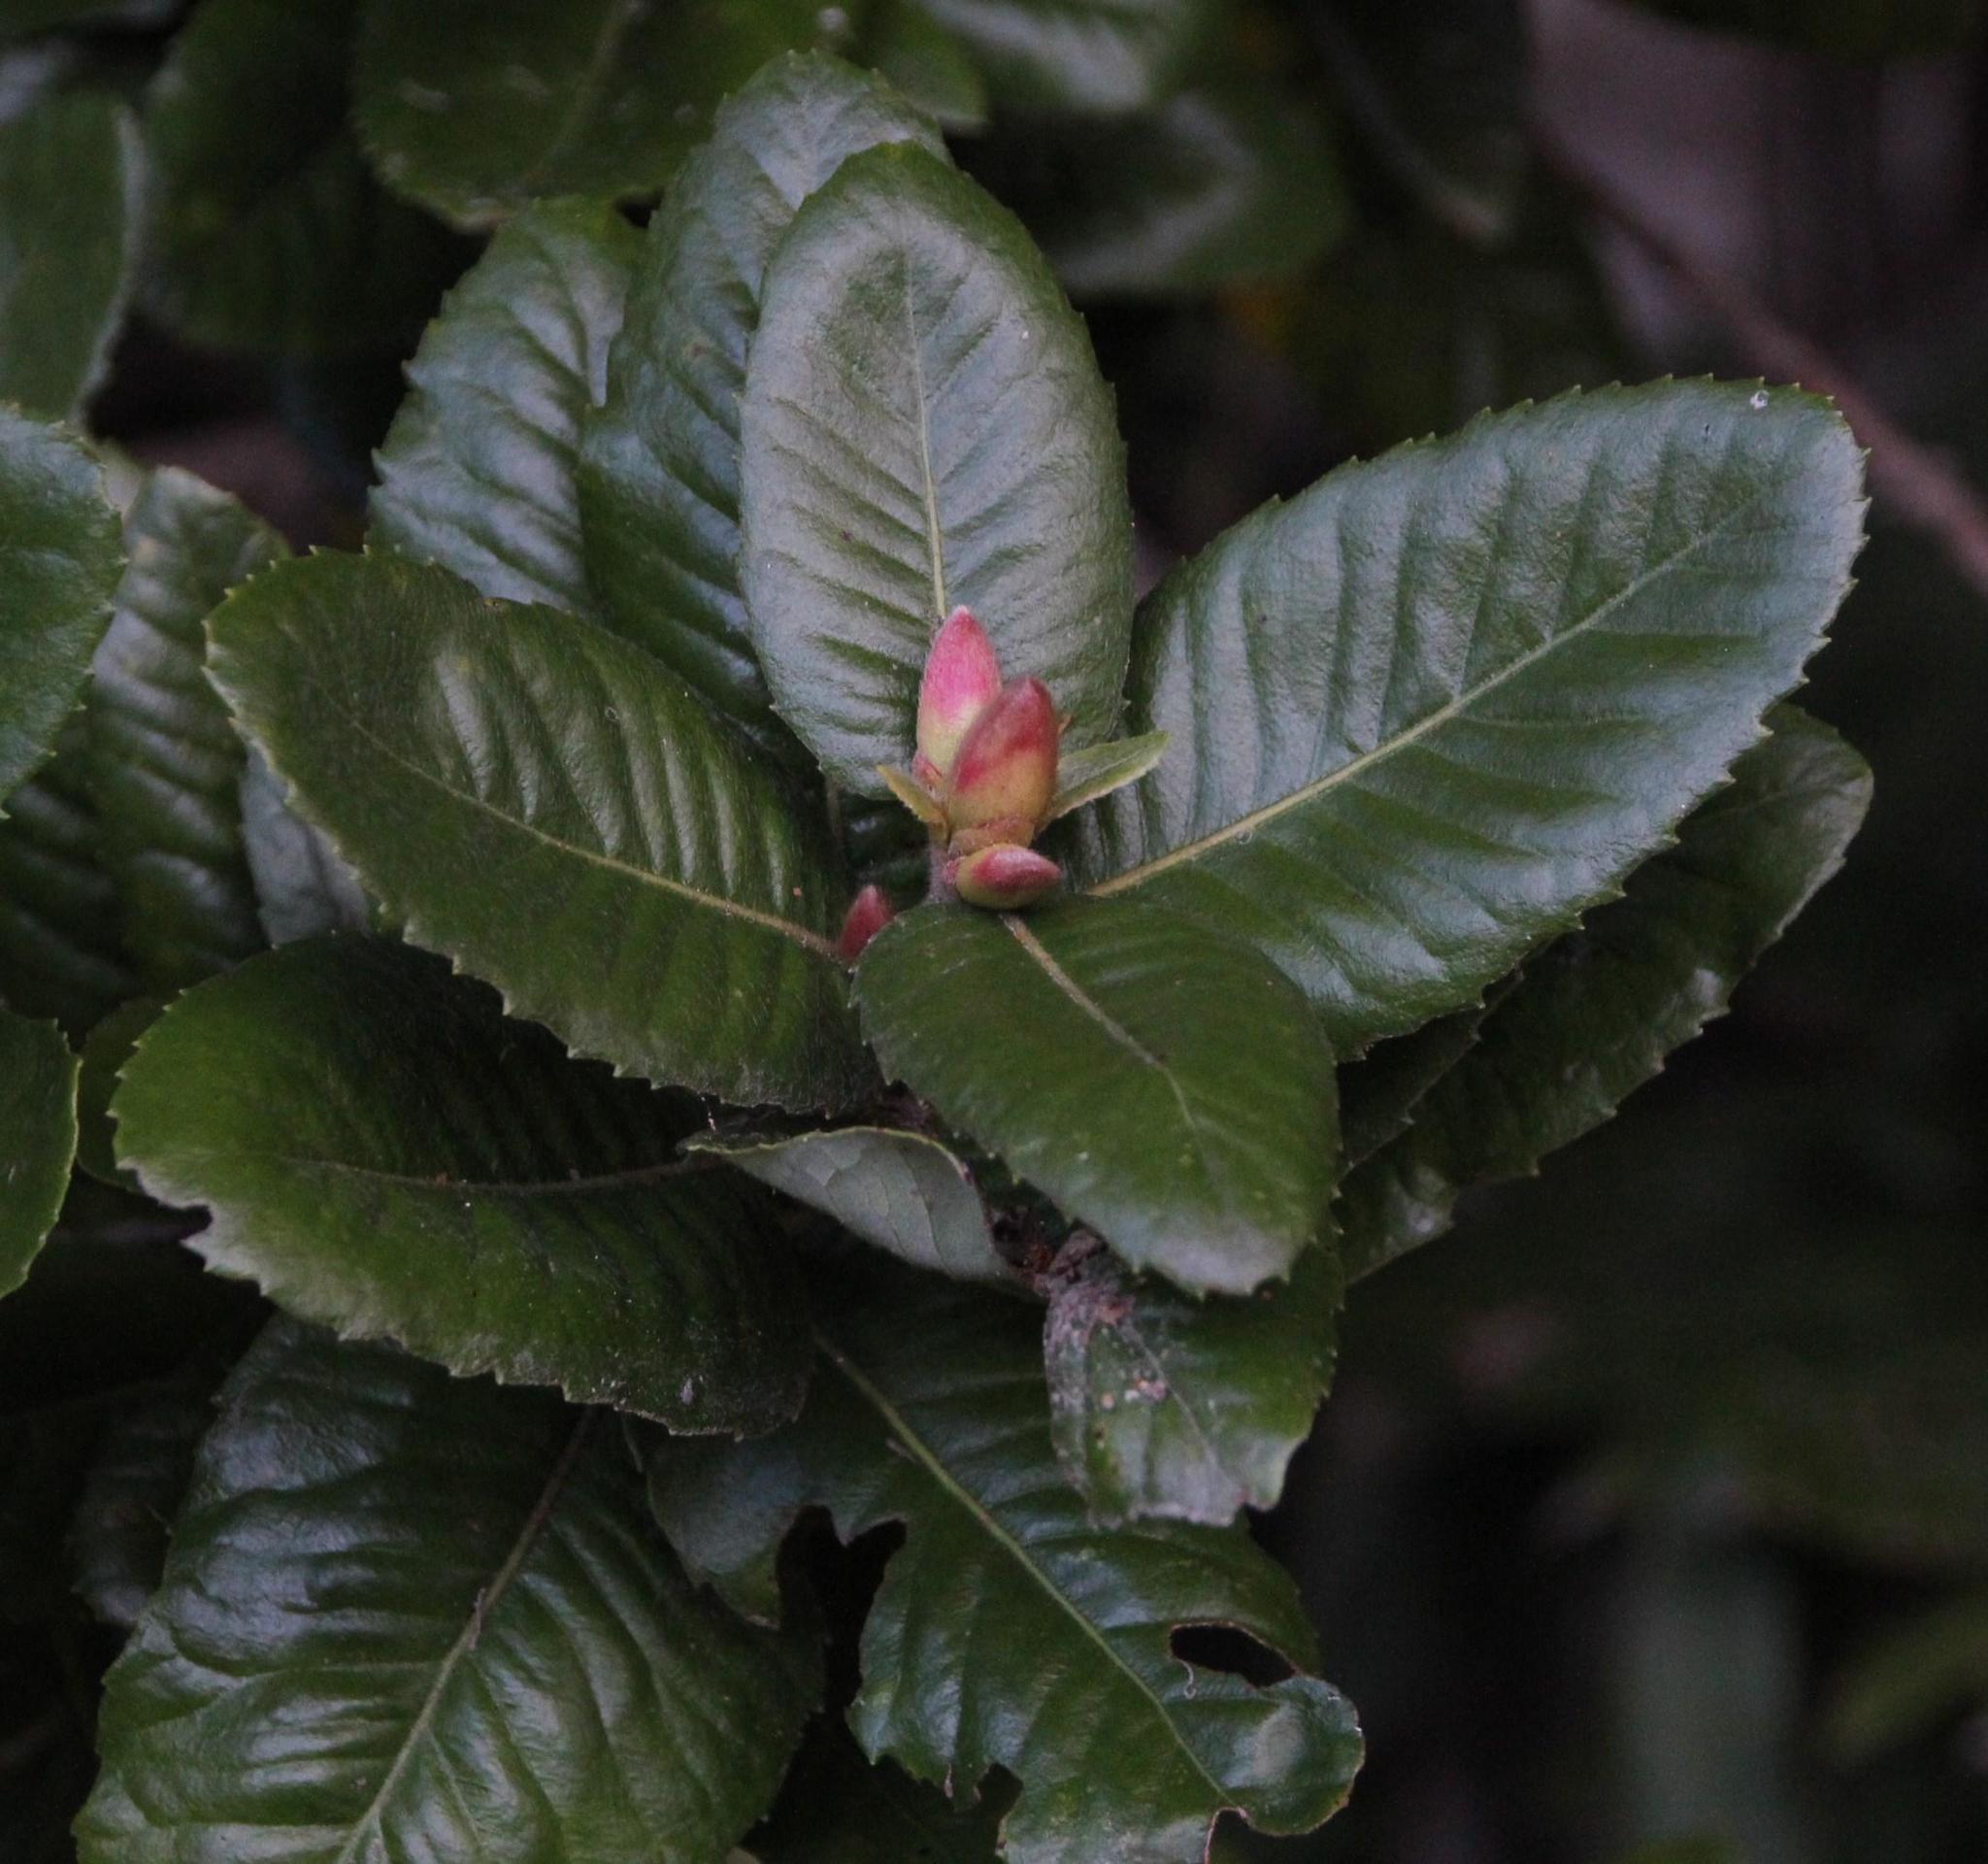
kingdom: Plantae
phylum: Tracheophyta
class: Magnoliopsida
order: Oxalidales
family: Cunoniaceae
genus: Eucryphia
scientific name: Eucryphia cordifolia
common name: Ulmo
